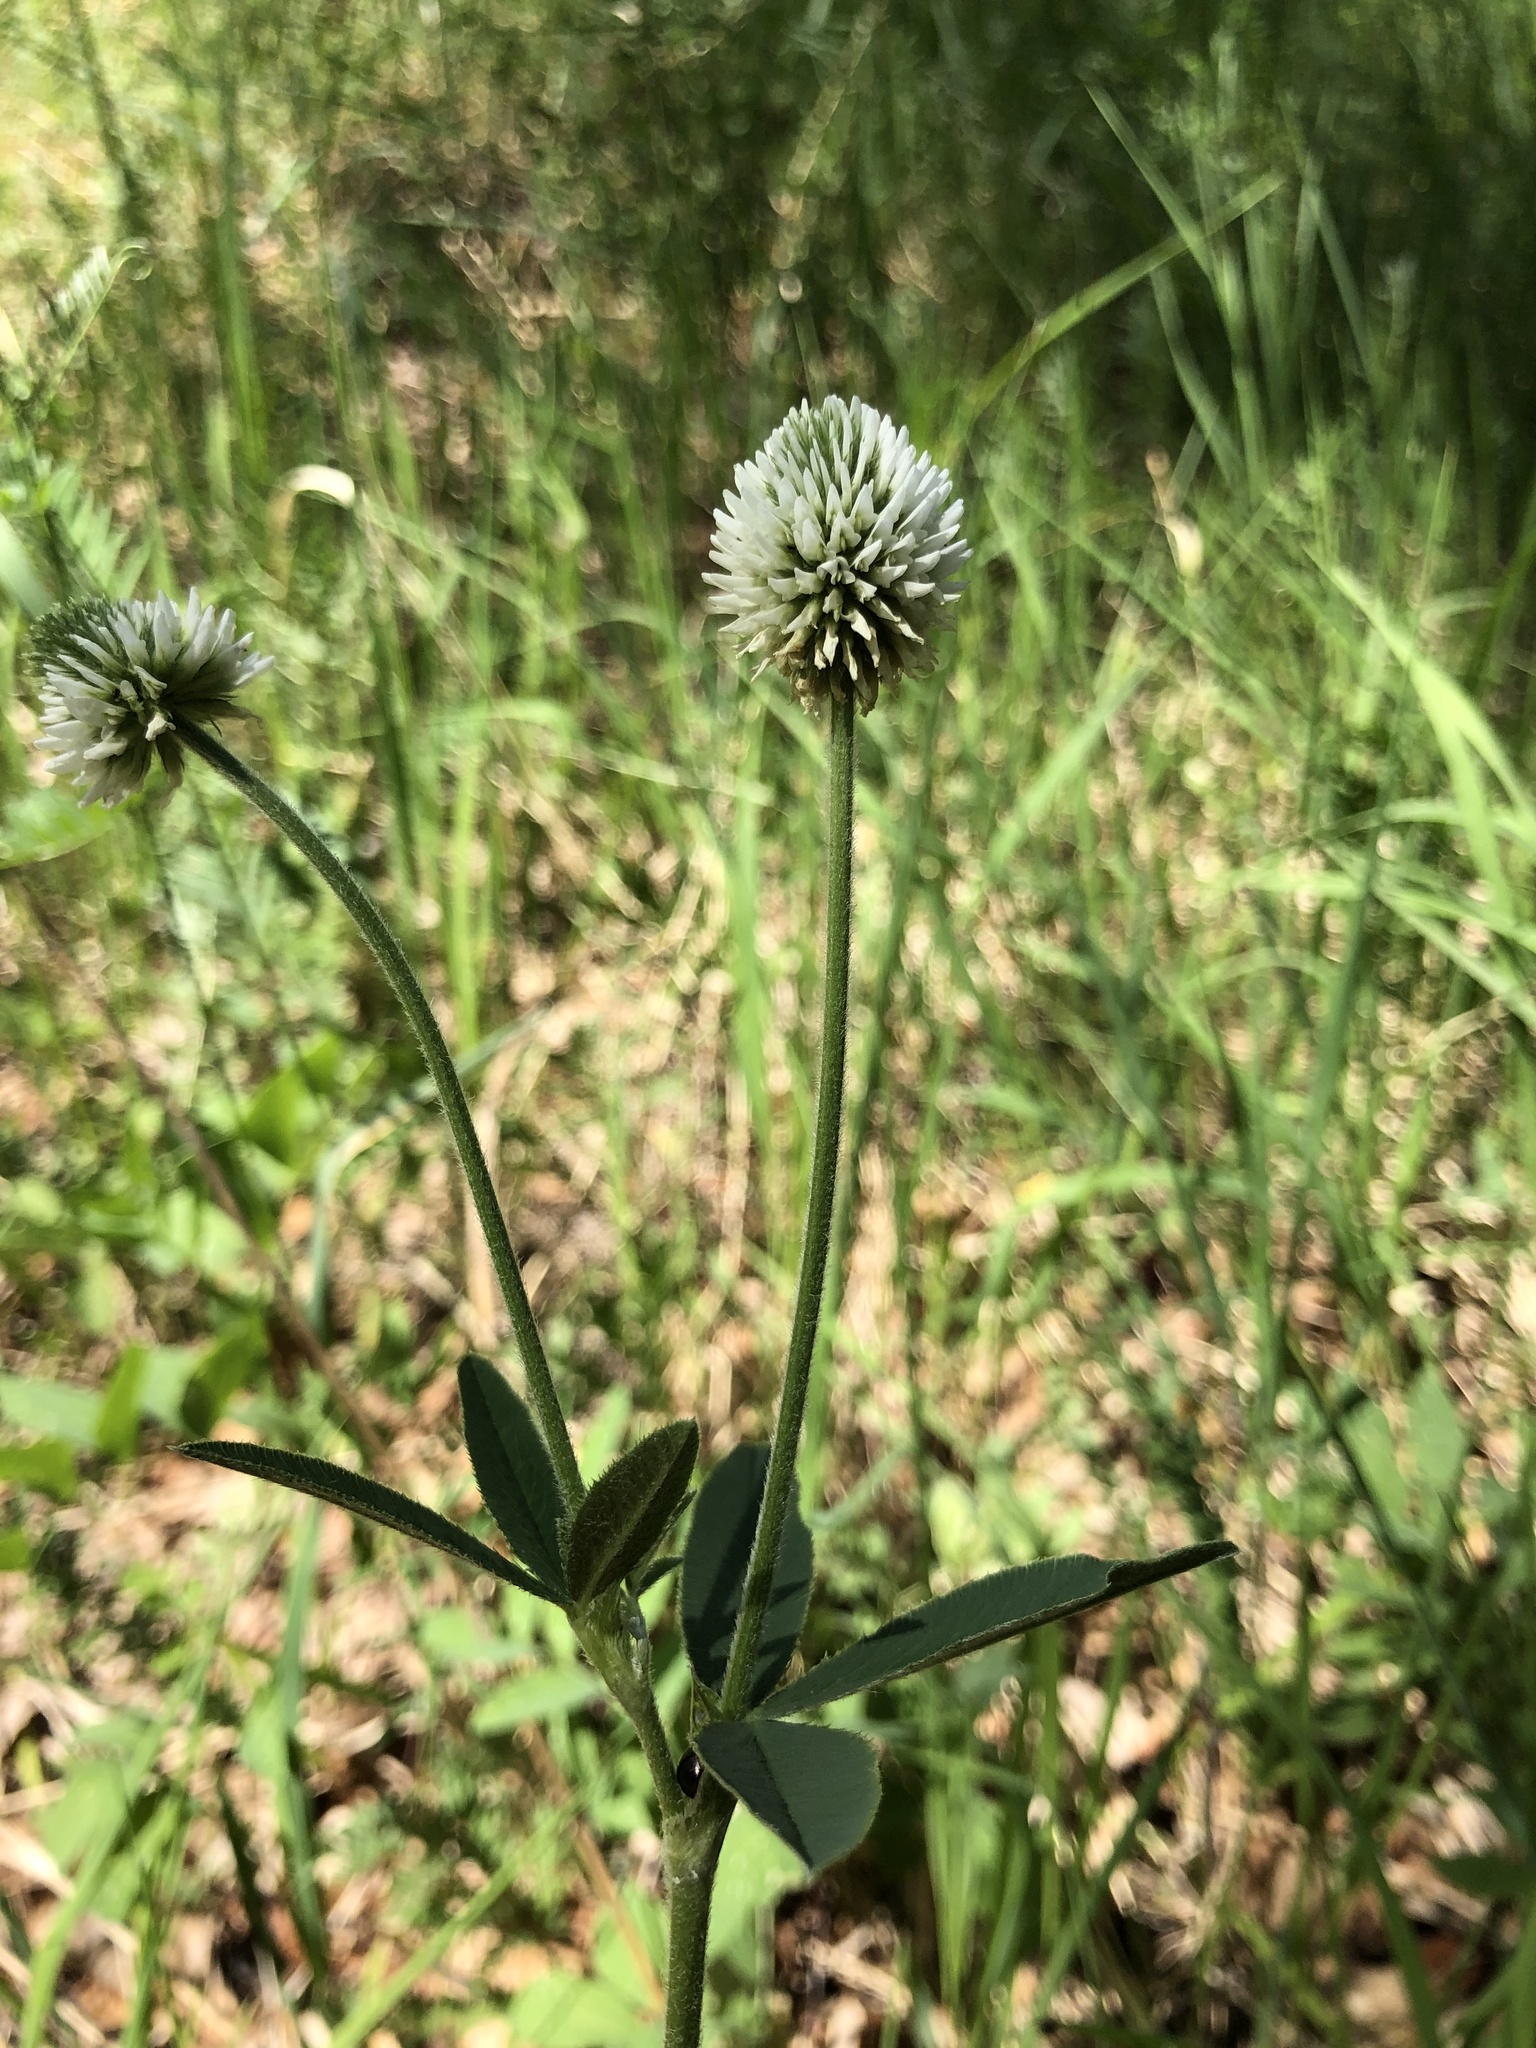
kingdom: Plantae
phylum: Tracheophyta
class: Magnoliopsida
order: Fabales
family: Fabaceae
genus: Trifolium
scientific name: Trifolium montanum
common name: Mountain clover
